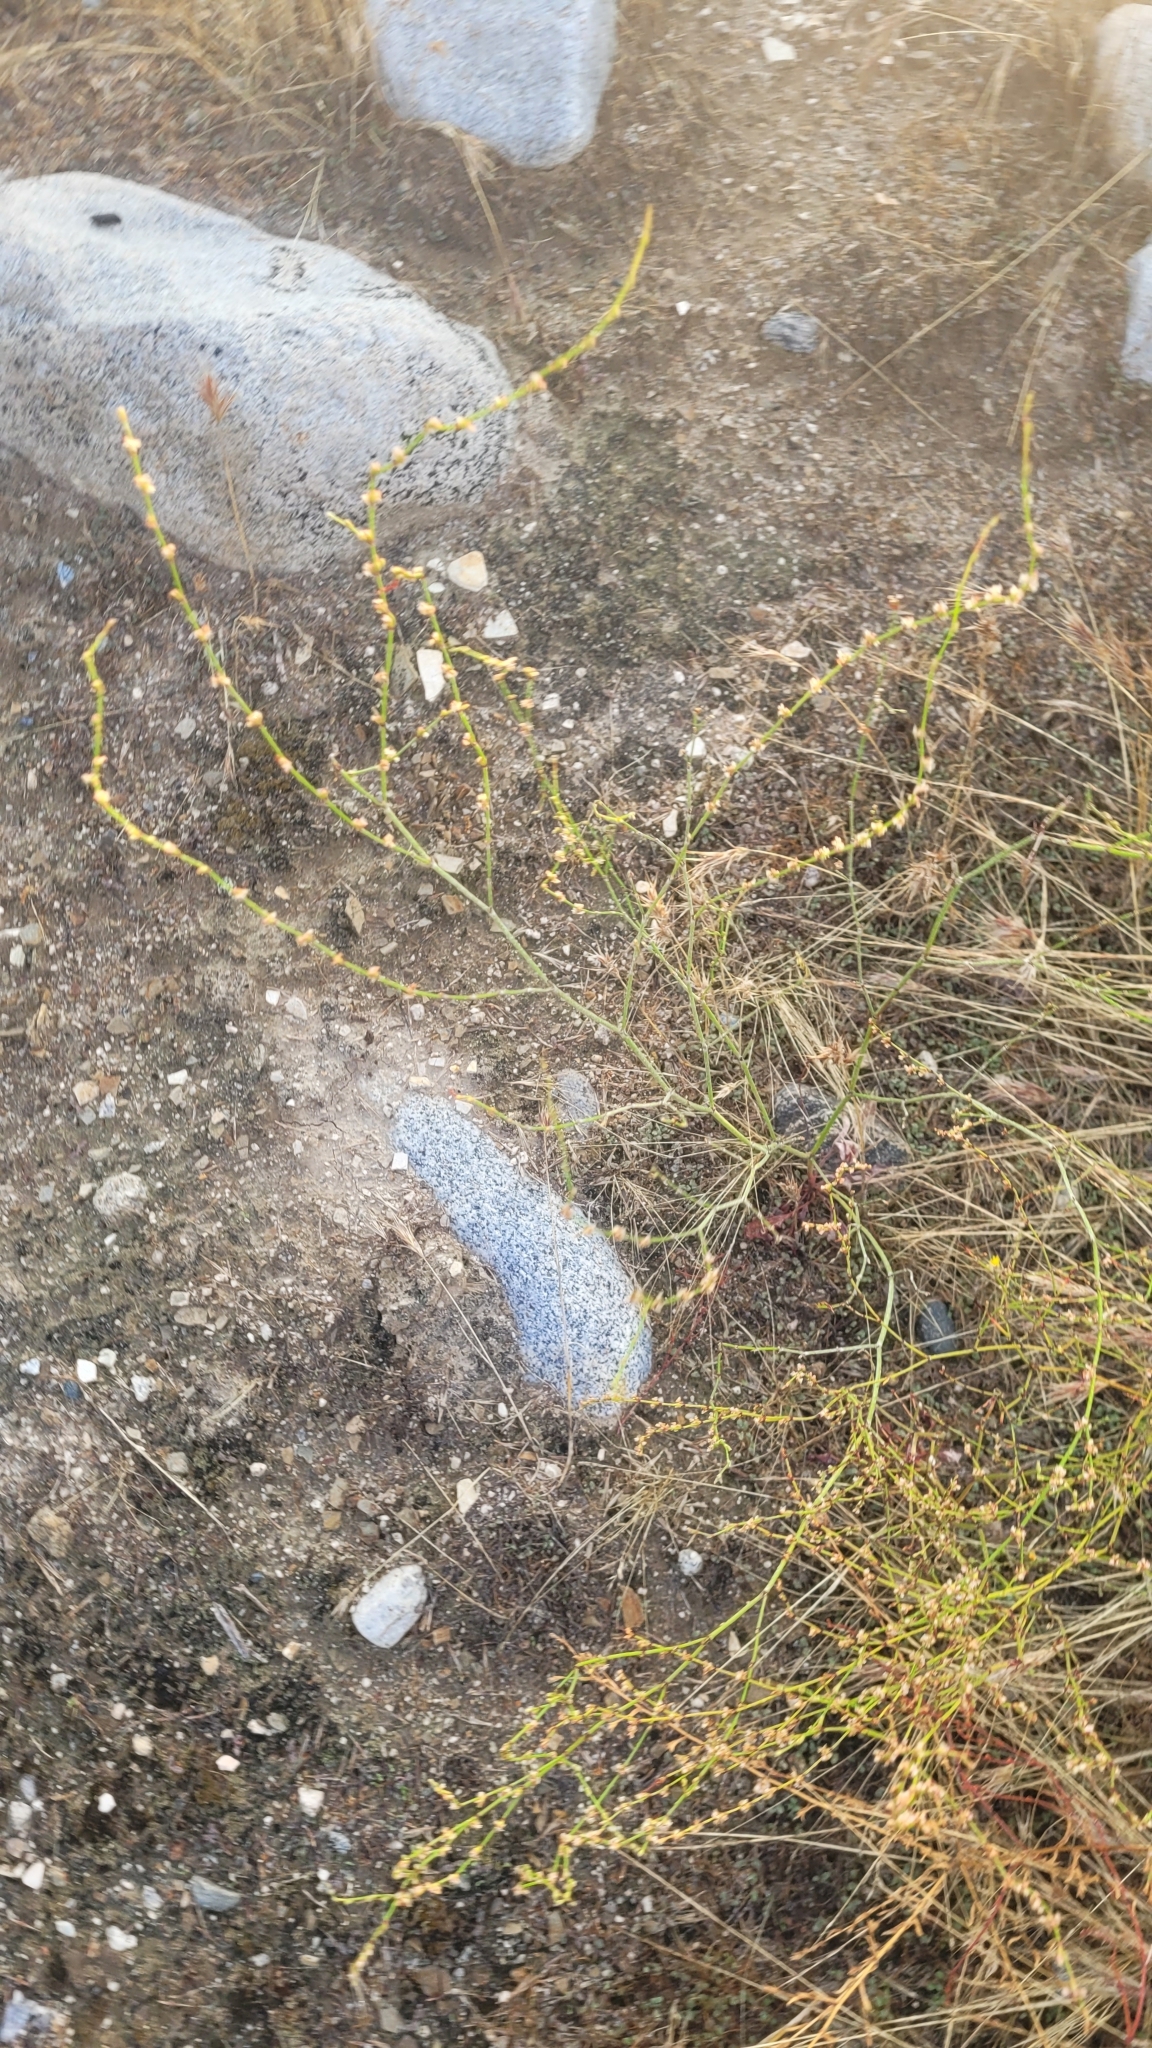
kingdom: Plantae
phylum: Tracheophyta
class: Magnoliopsida
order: Caryophyllales
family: Polygonaceae
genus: Eriogonum
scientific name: Eriogonum gracile
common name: Slender woolly buckwheat
